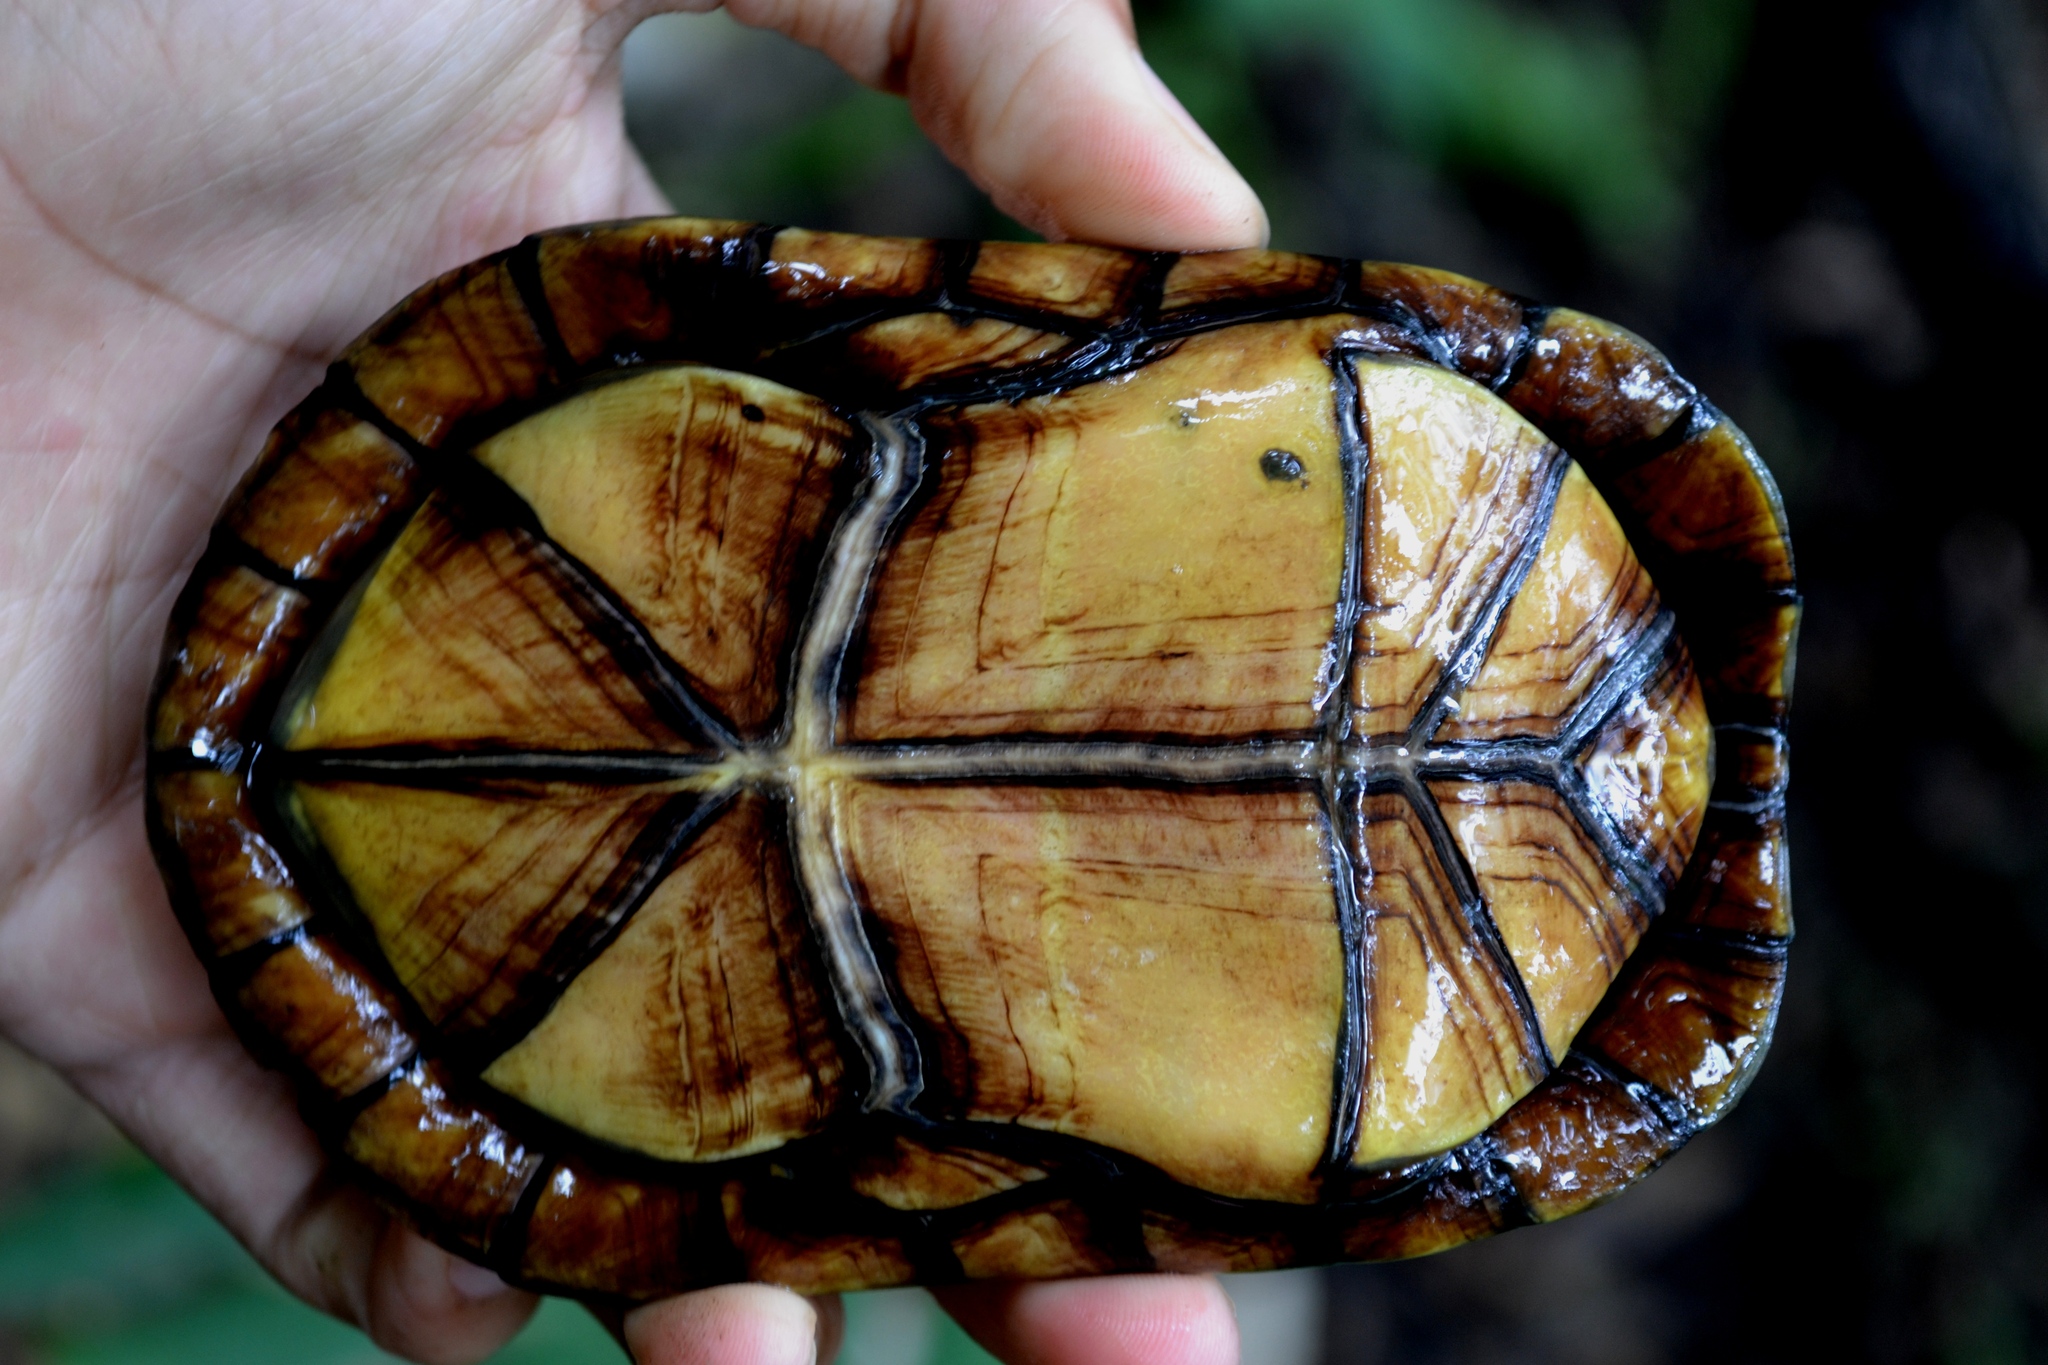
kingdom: Animalia
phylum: Chordata
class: Testudines
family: Kinosternidae
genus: Kinosternon
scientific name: Kinosternon leucostomum
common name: White-lipped mud turtle
